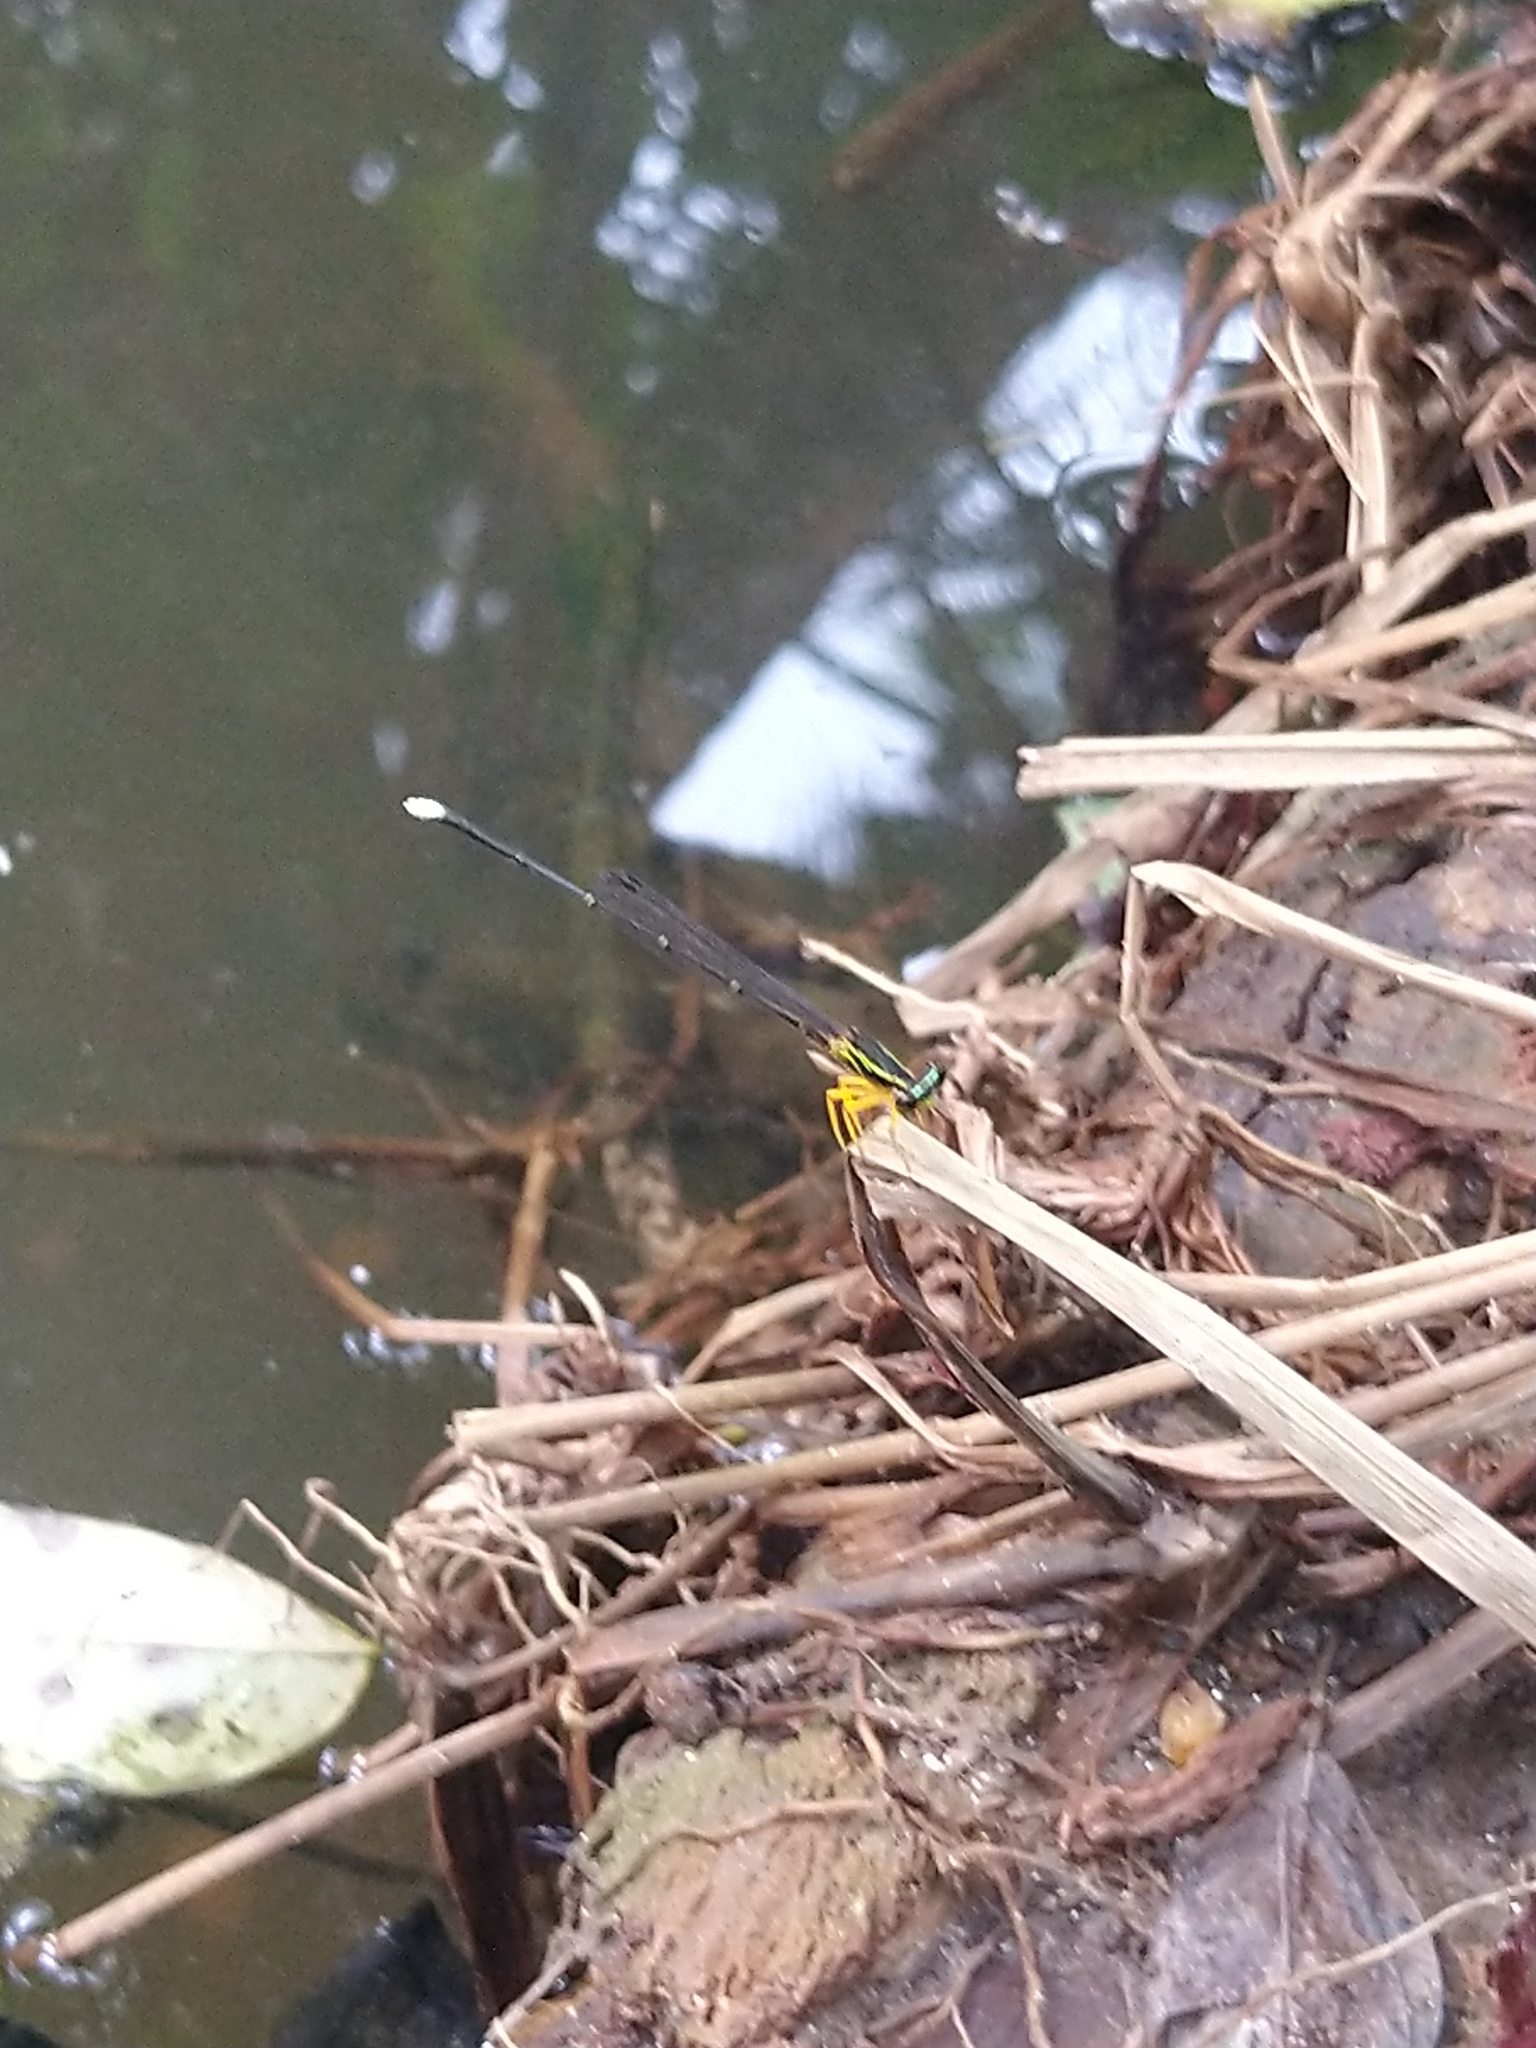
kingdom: Animalia
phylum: Arthropoda
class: Insecta
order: Odonata
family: Platycnemididae
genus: Copera
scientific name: Copera marginipes
